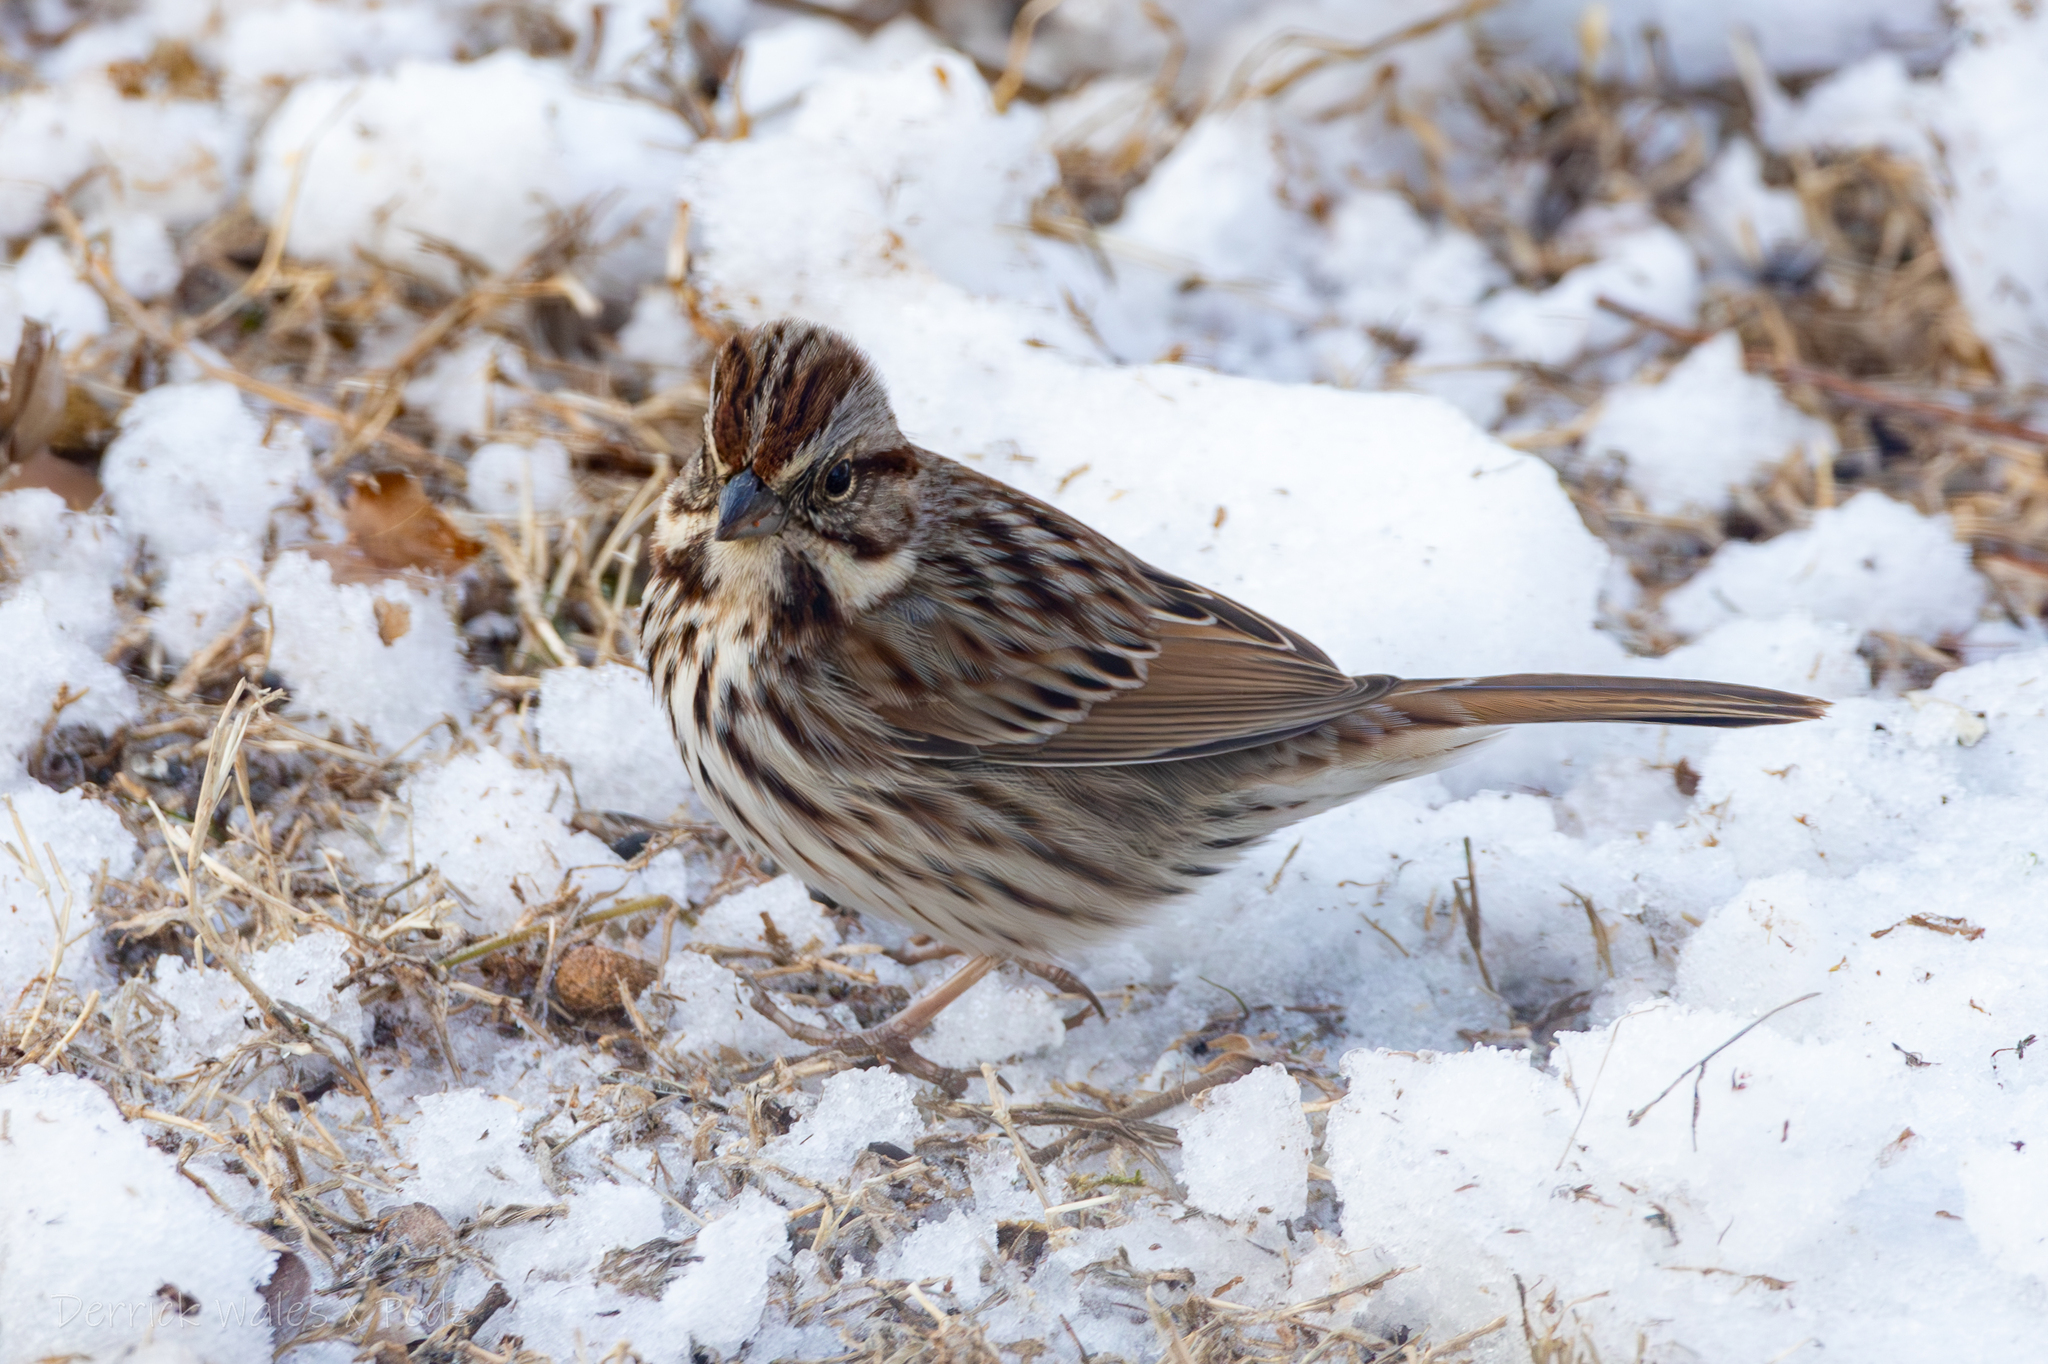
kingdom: Animalia
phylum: Chordata
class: Aves
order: Passeriformes
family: Passerellidae
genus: Melospiza
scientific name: Melospiza melodia
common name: Song sparrow
